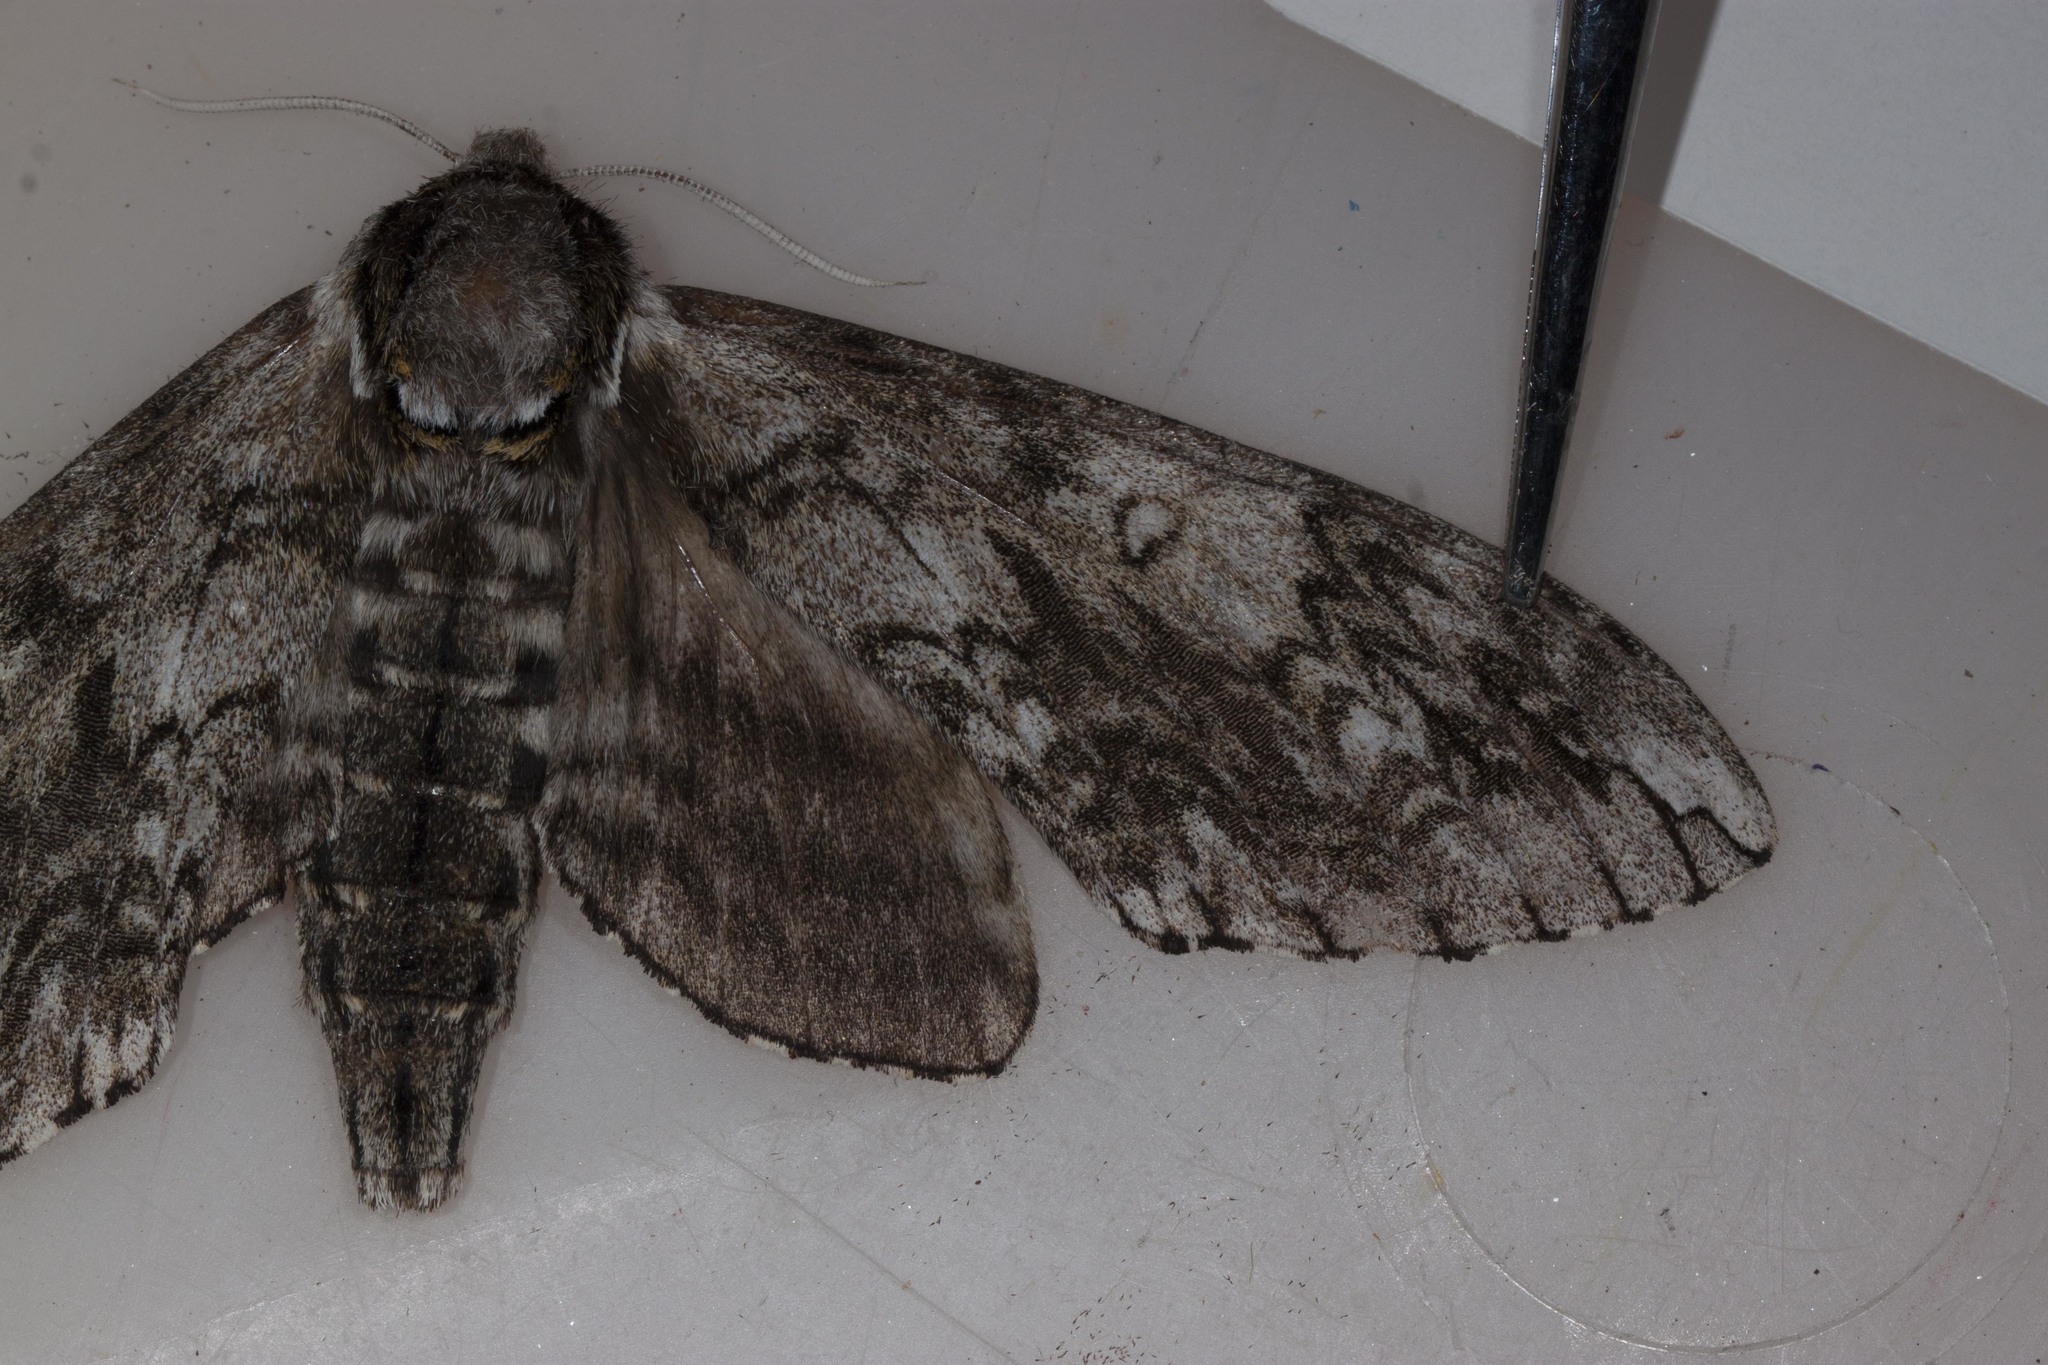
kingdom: Animalia
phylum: Arthropoda
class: Insecta
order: Lepidoptera
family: Sphingidae
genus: Ceratomia
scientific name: Ceratomia undulosa
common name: Waved sphinx
